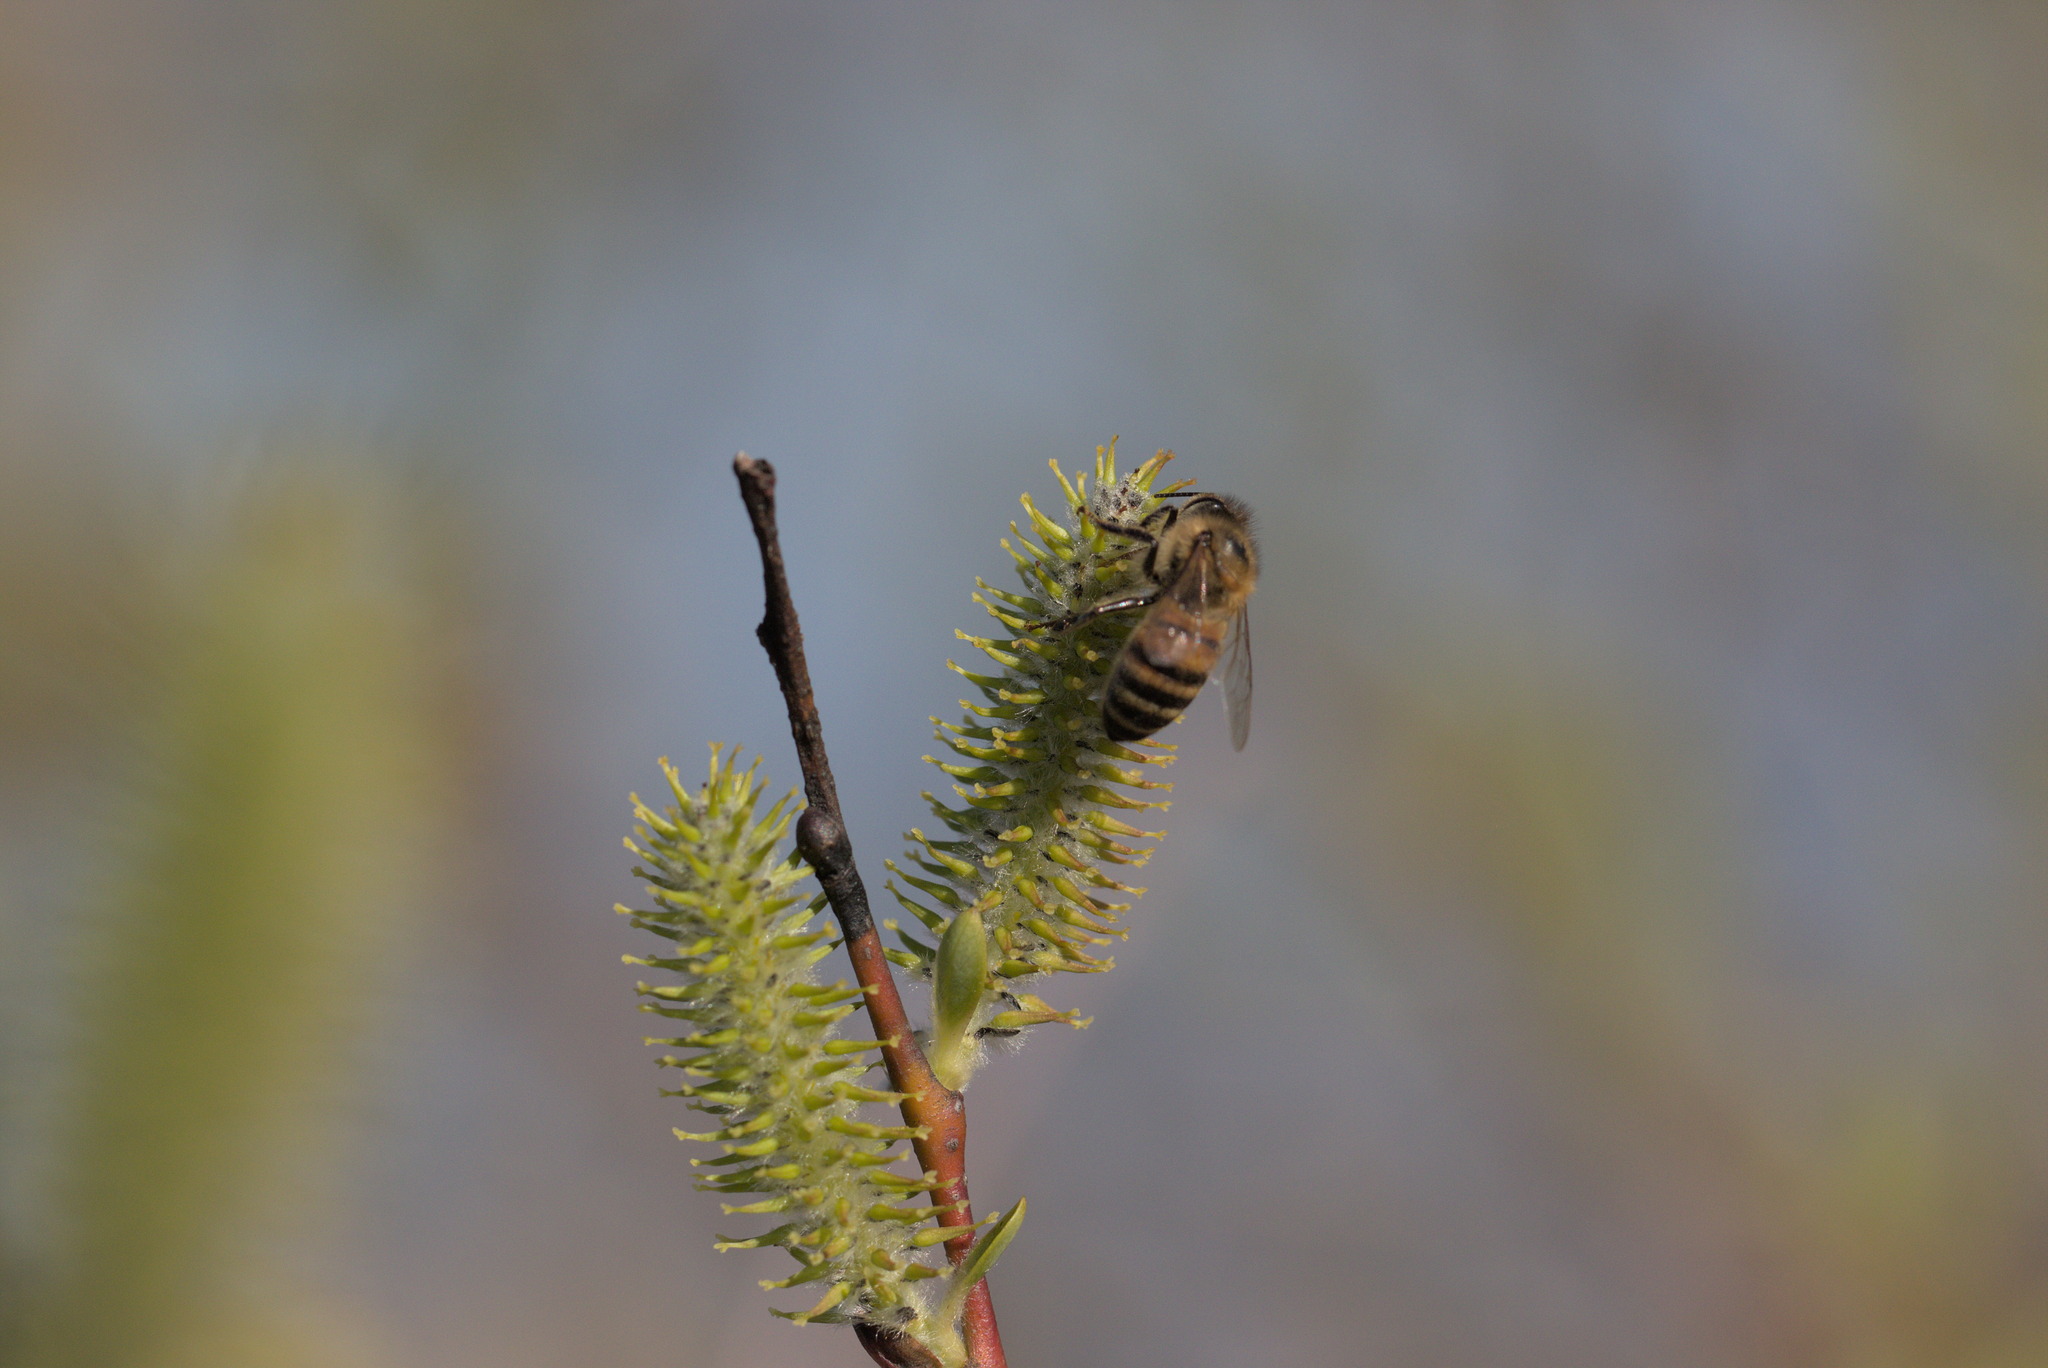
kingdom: Animalia
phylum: Arthropoda
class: Insecta
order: Hymenoptera
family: Apidae
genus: Apis
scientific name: Apis mellifera
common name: Honey bee
